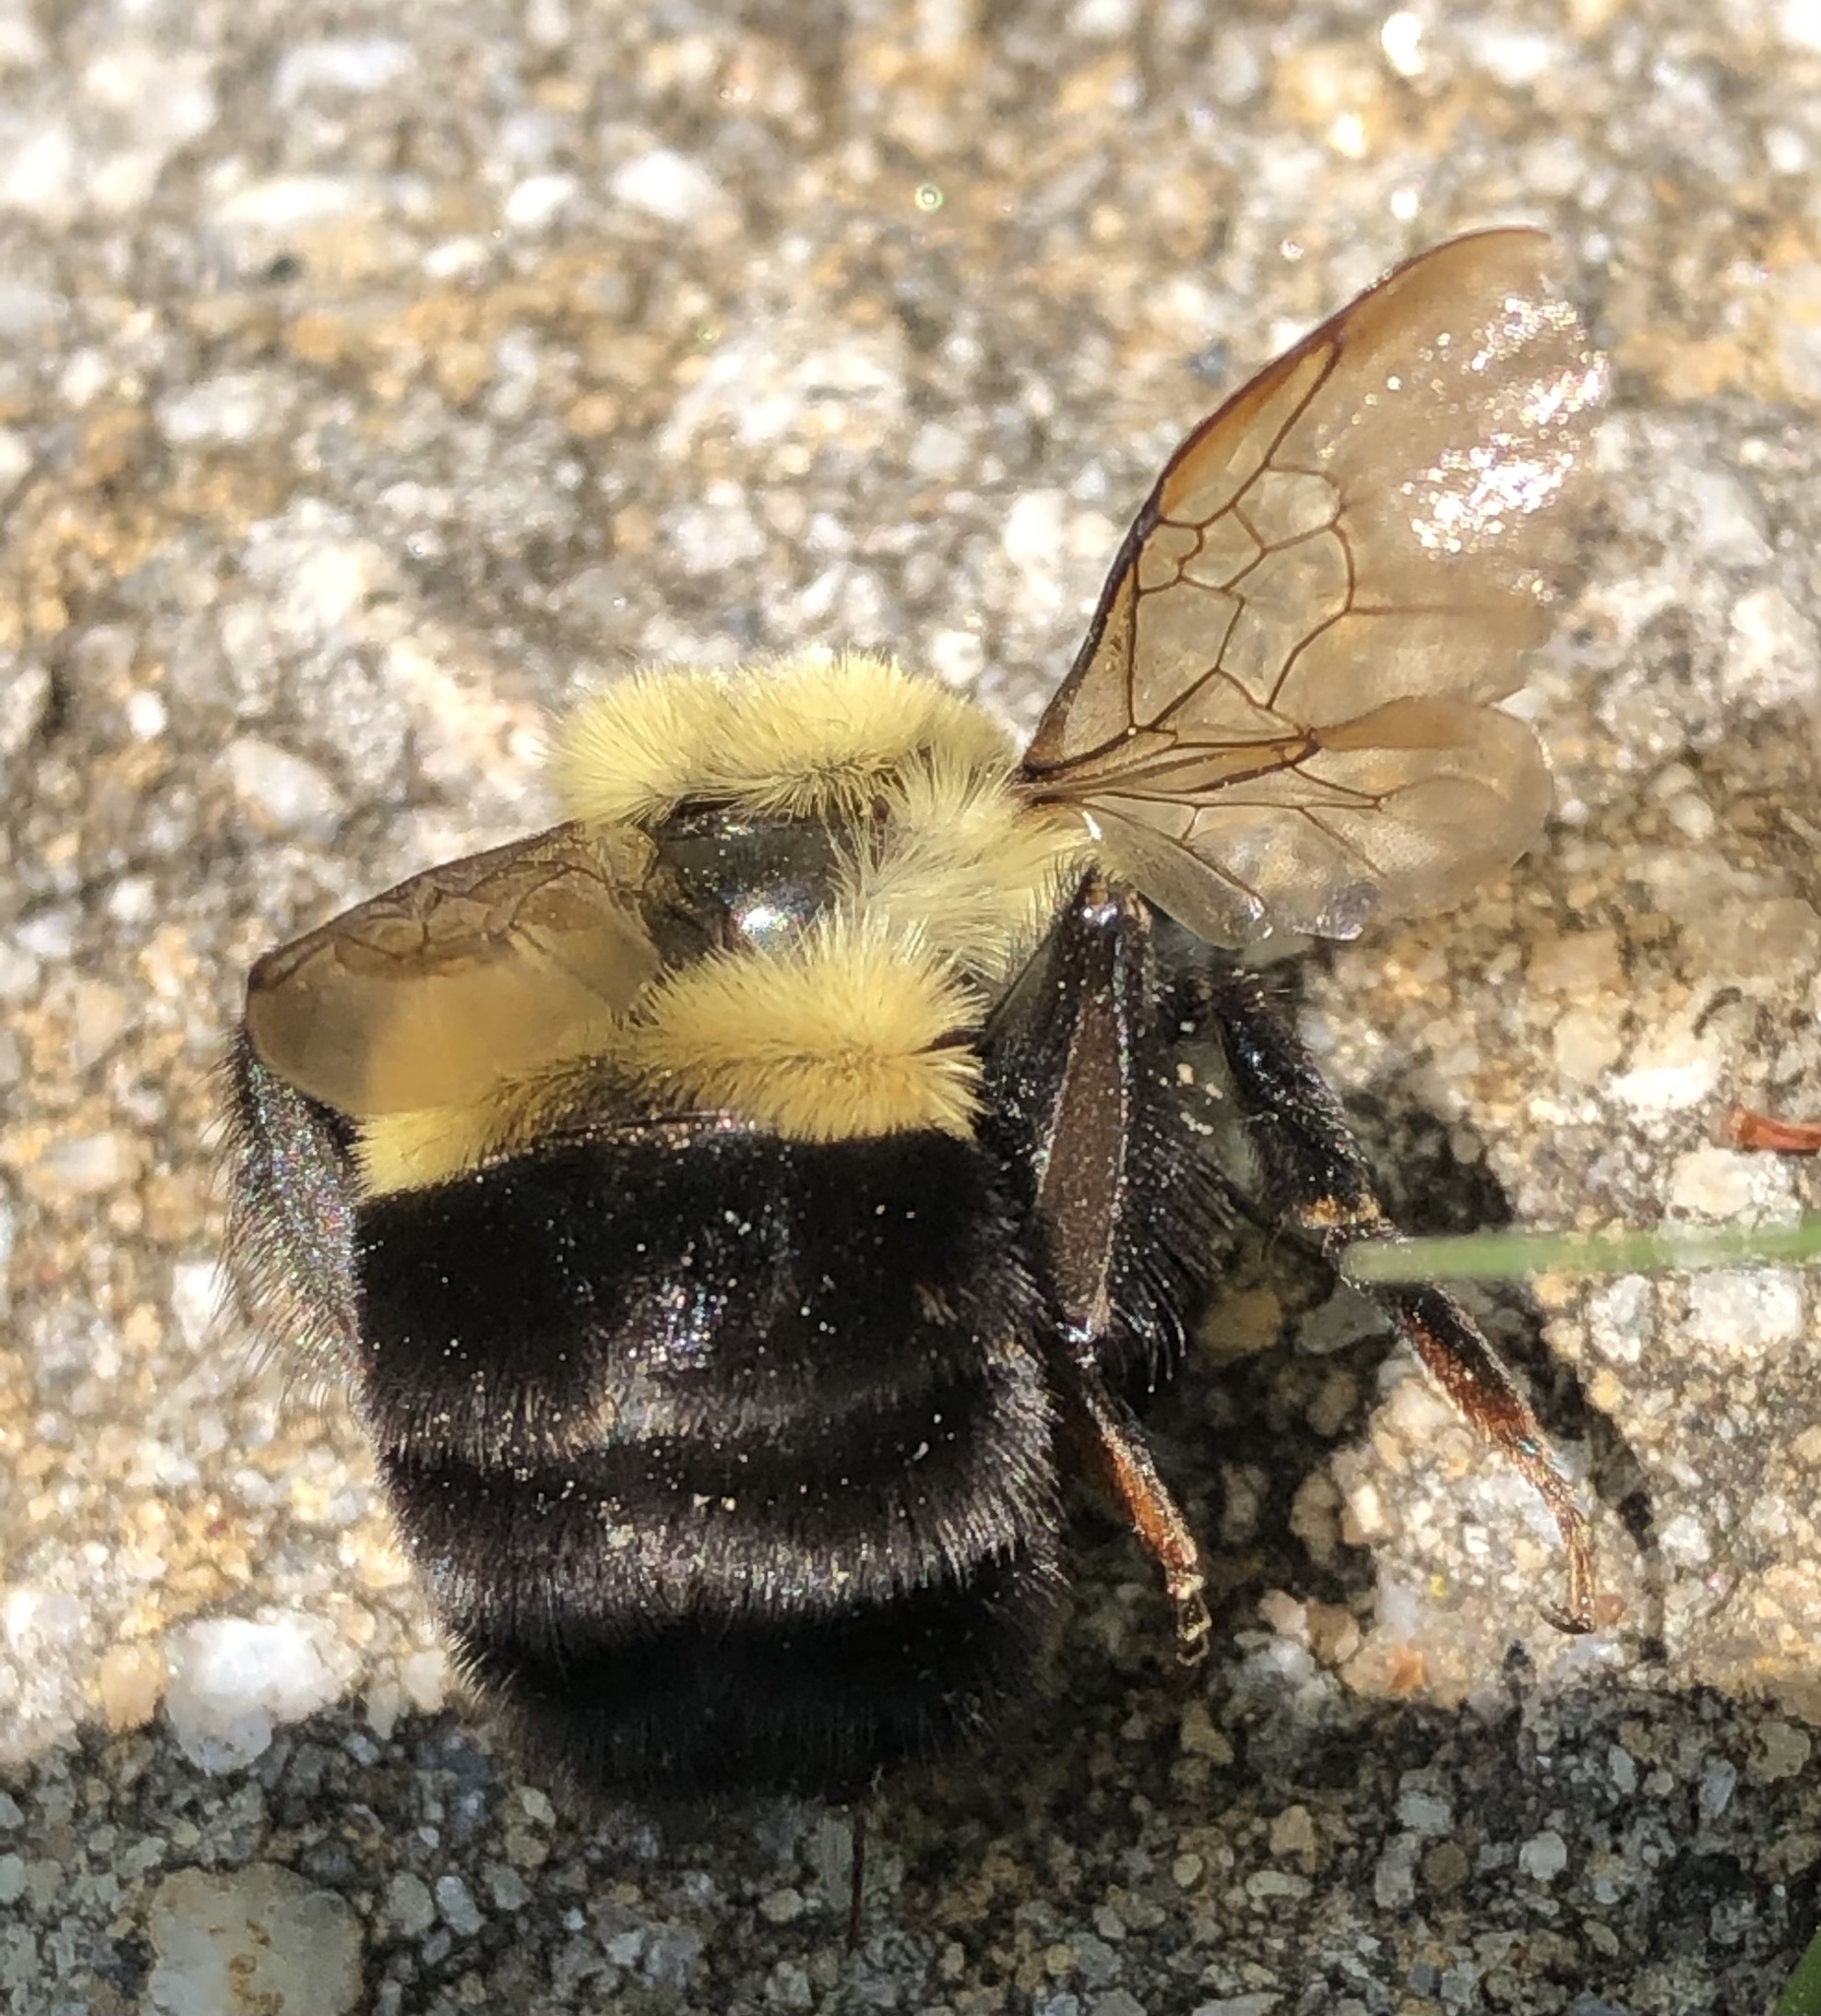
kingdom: Animalia
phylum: Arthropoda
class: Insecta
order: Hymenoptera
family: Apidae
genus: Bombus
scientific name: Bombus impatiens
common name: Common eastern bumble bee
